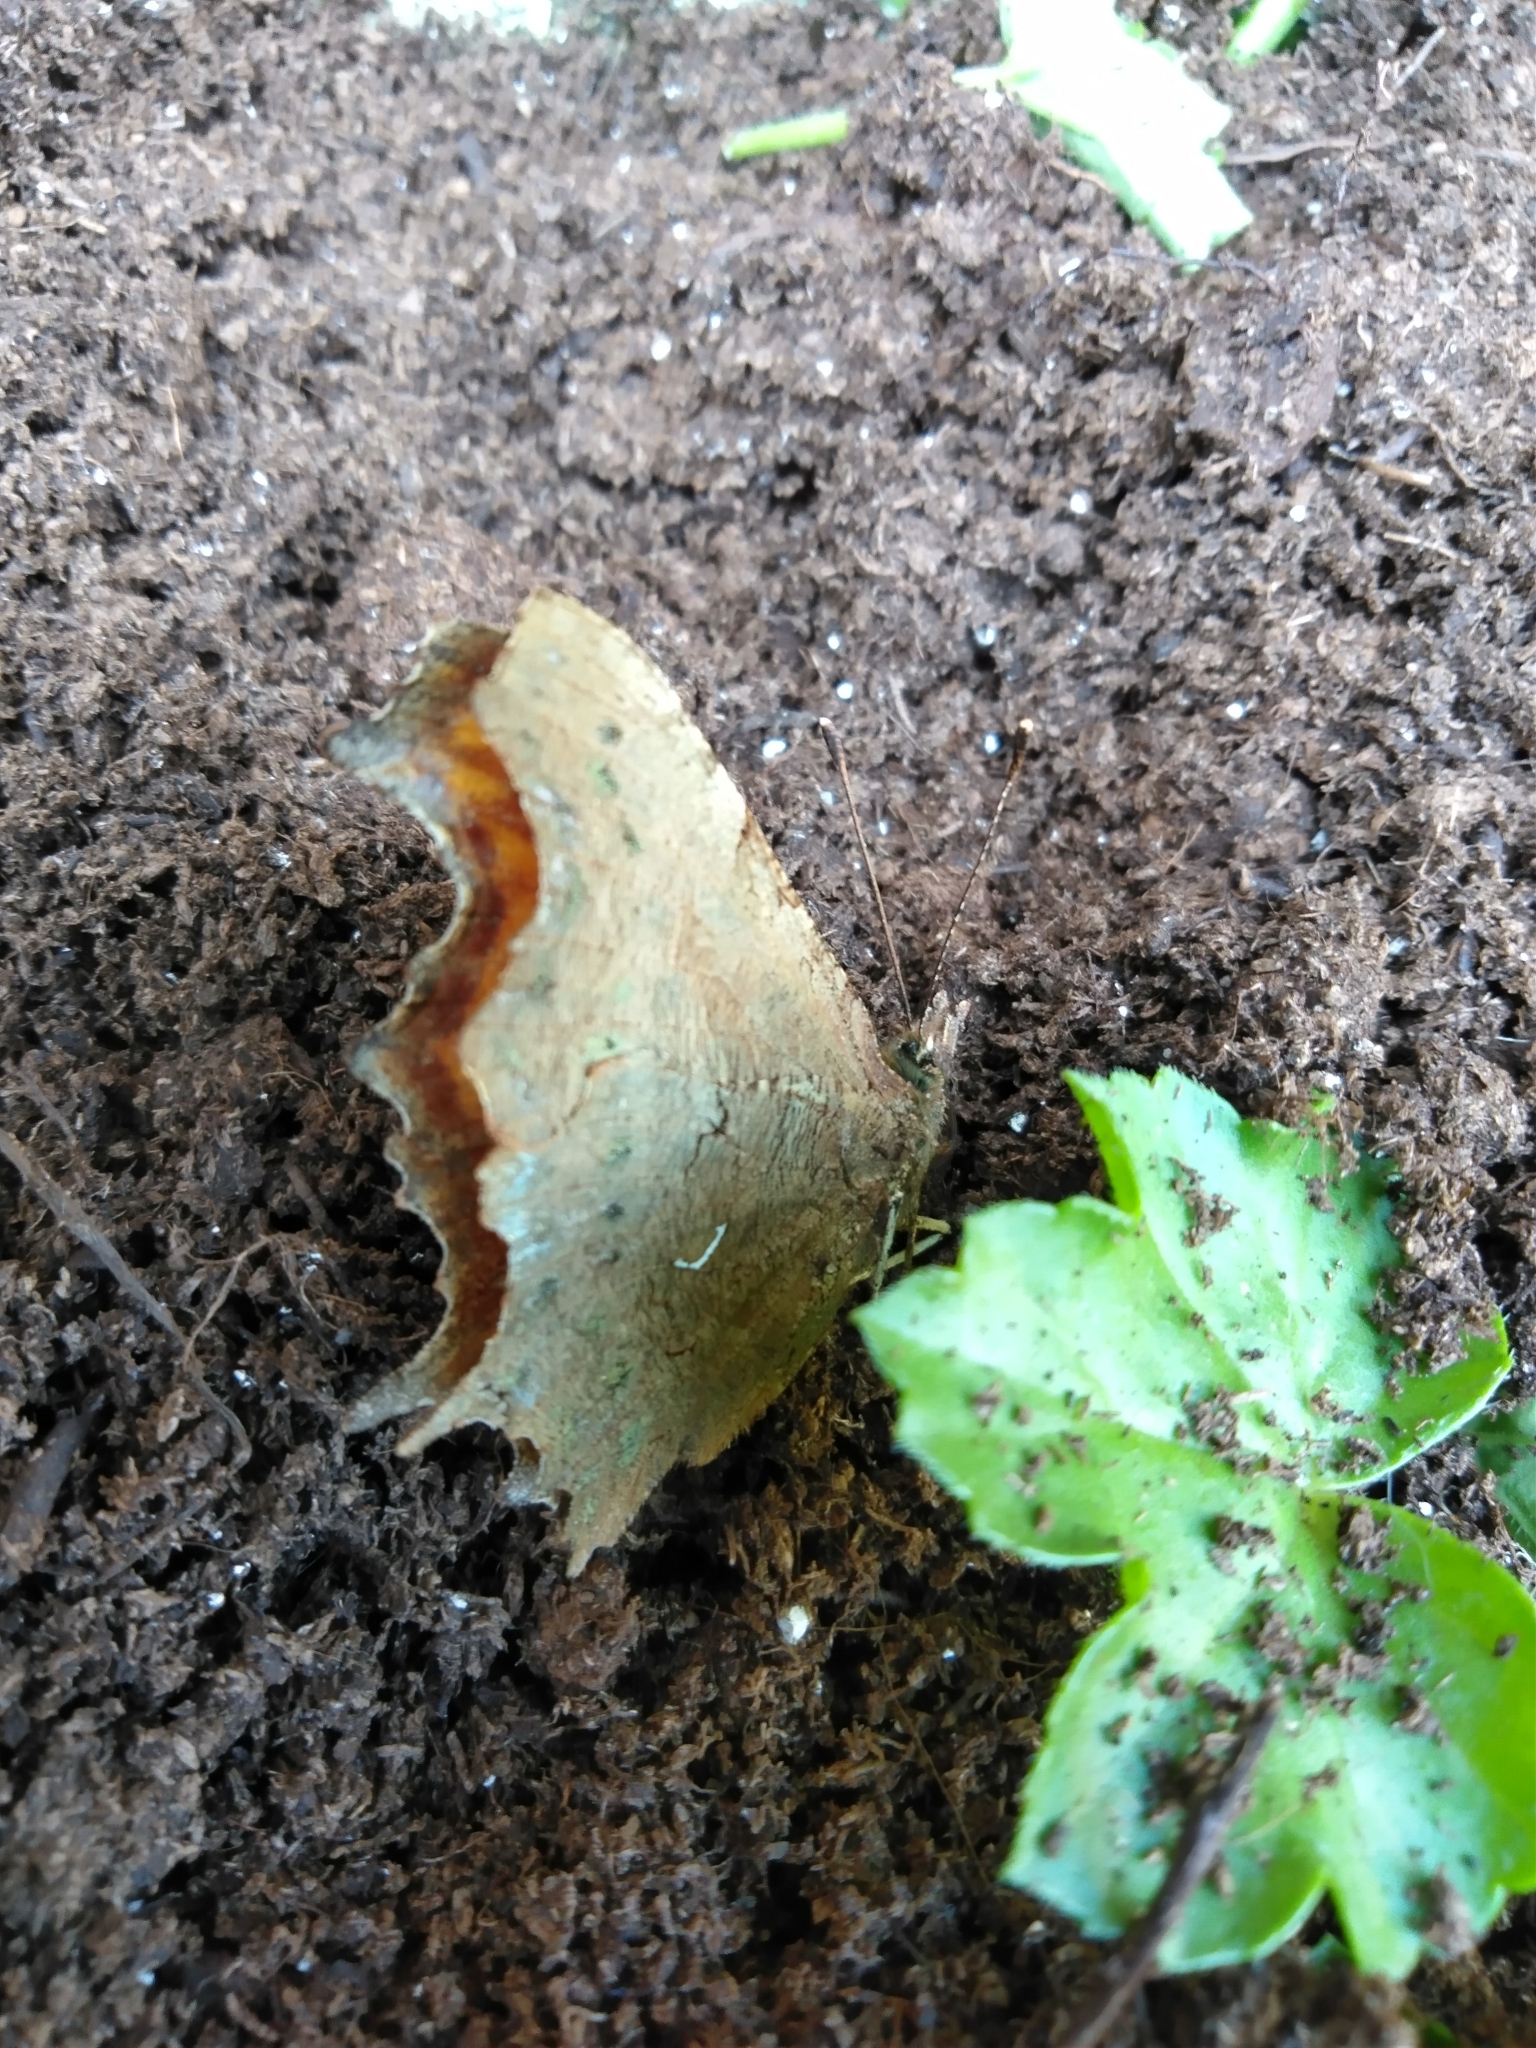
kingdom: Animalia
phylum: Arthropoda
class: Insecta
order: Lepidoptera
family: Nymphalidae
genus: Polygonia
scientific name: Polygonia c-album
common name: Comma
